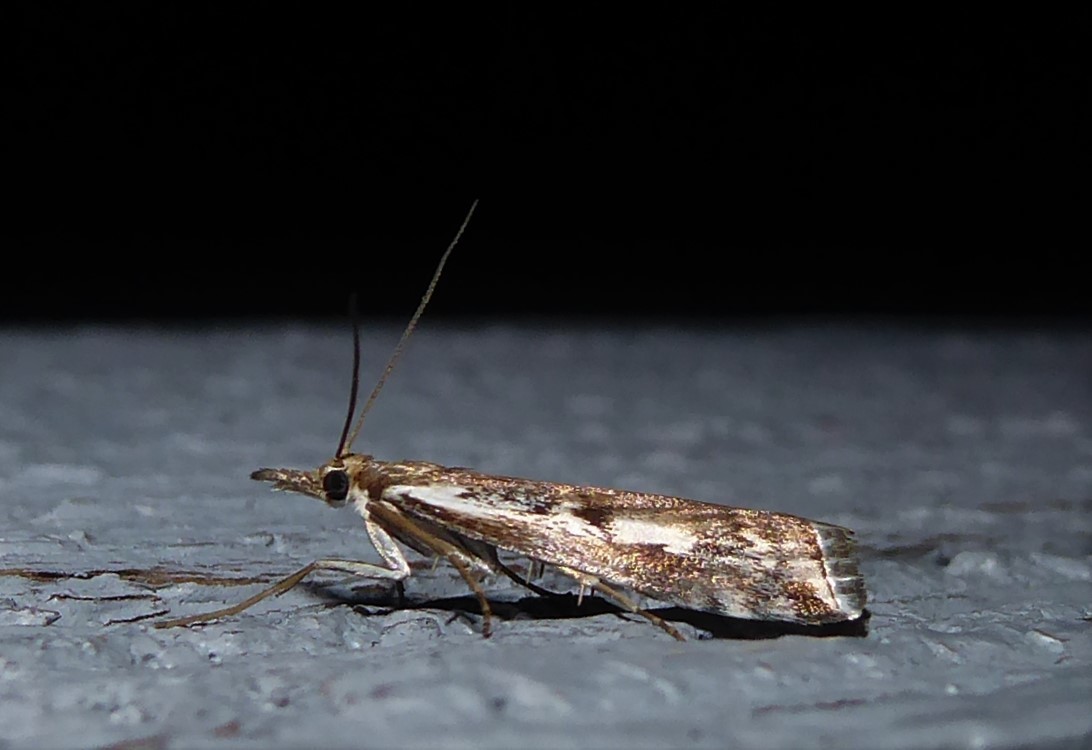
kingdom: Animalia
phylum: Arthropoda
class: Insecta
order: Lepidoptera
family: Crambidae
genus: Orocrambus
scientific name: Orocrambus vulgaris
